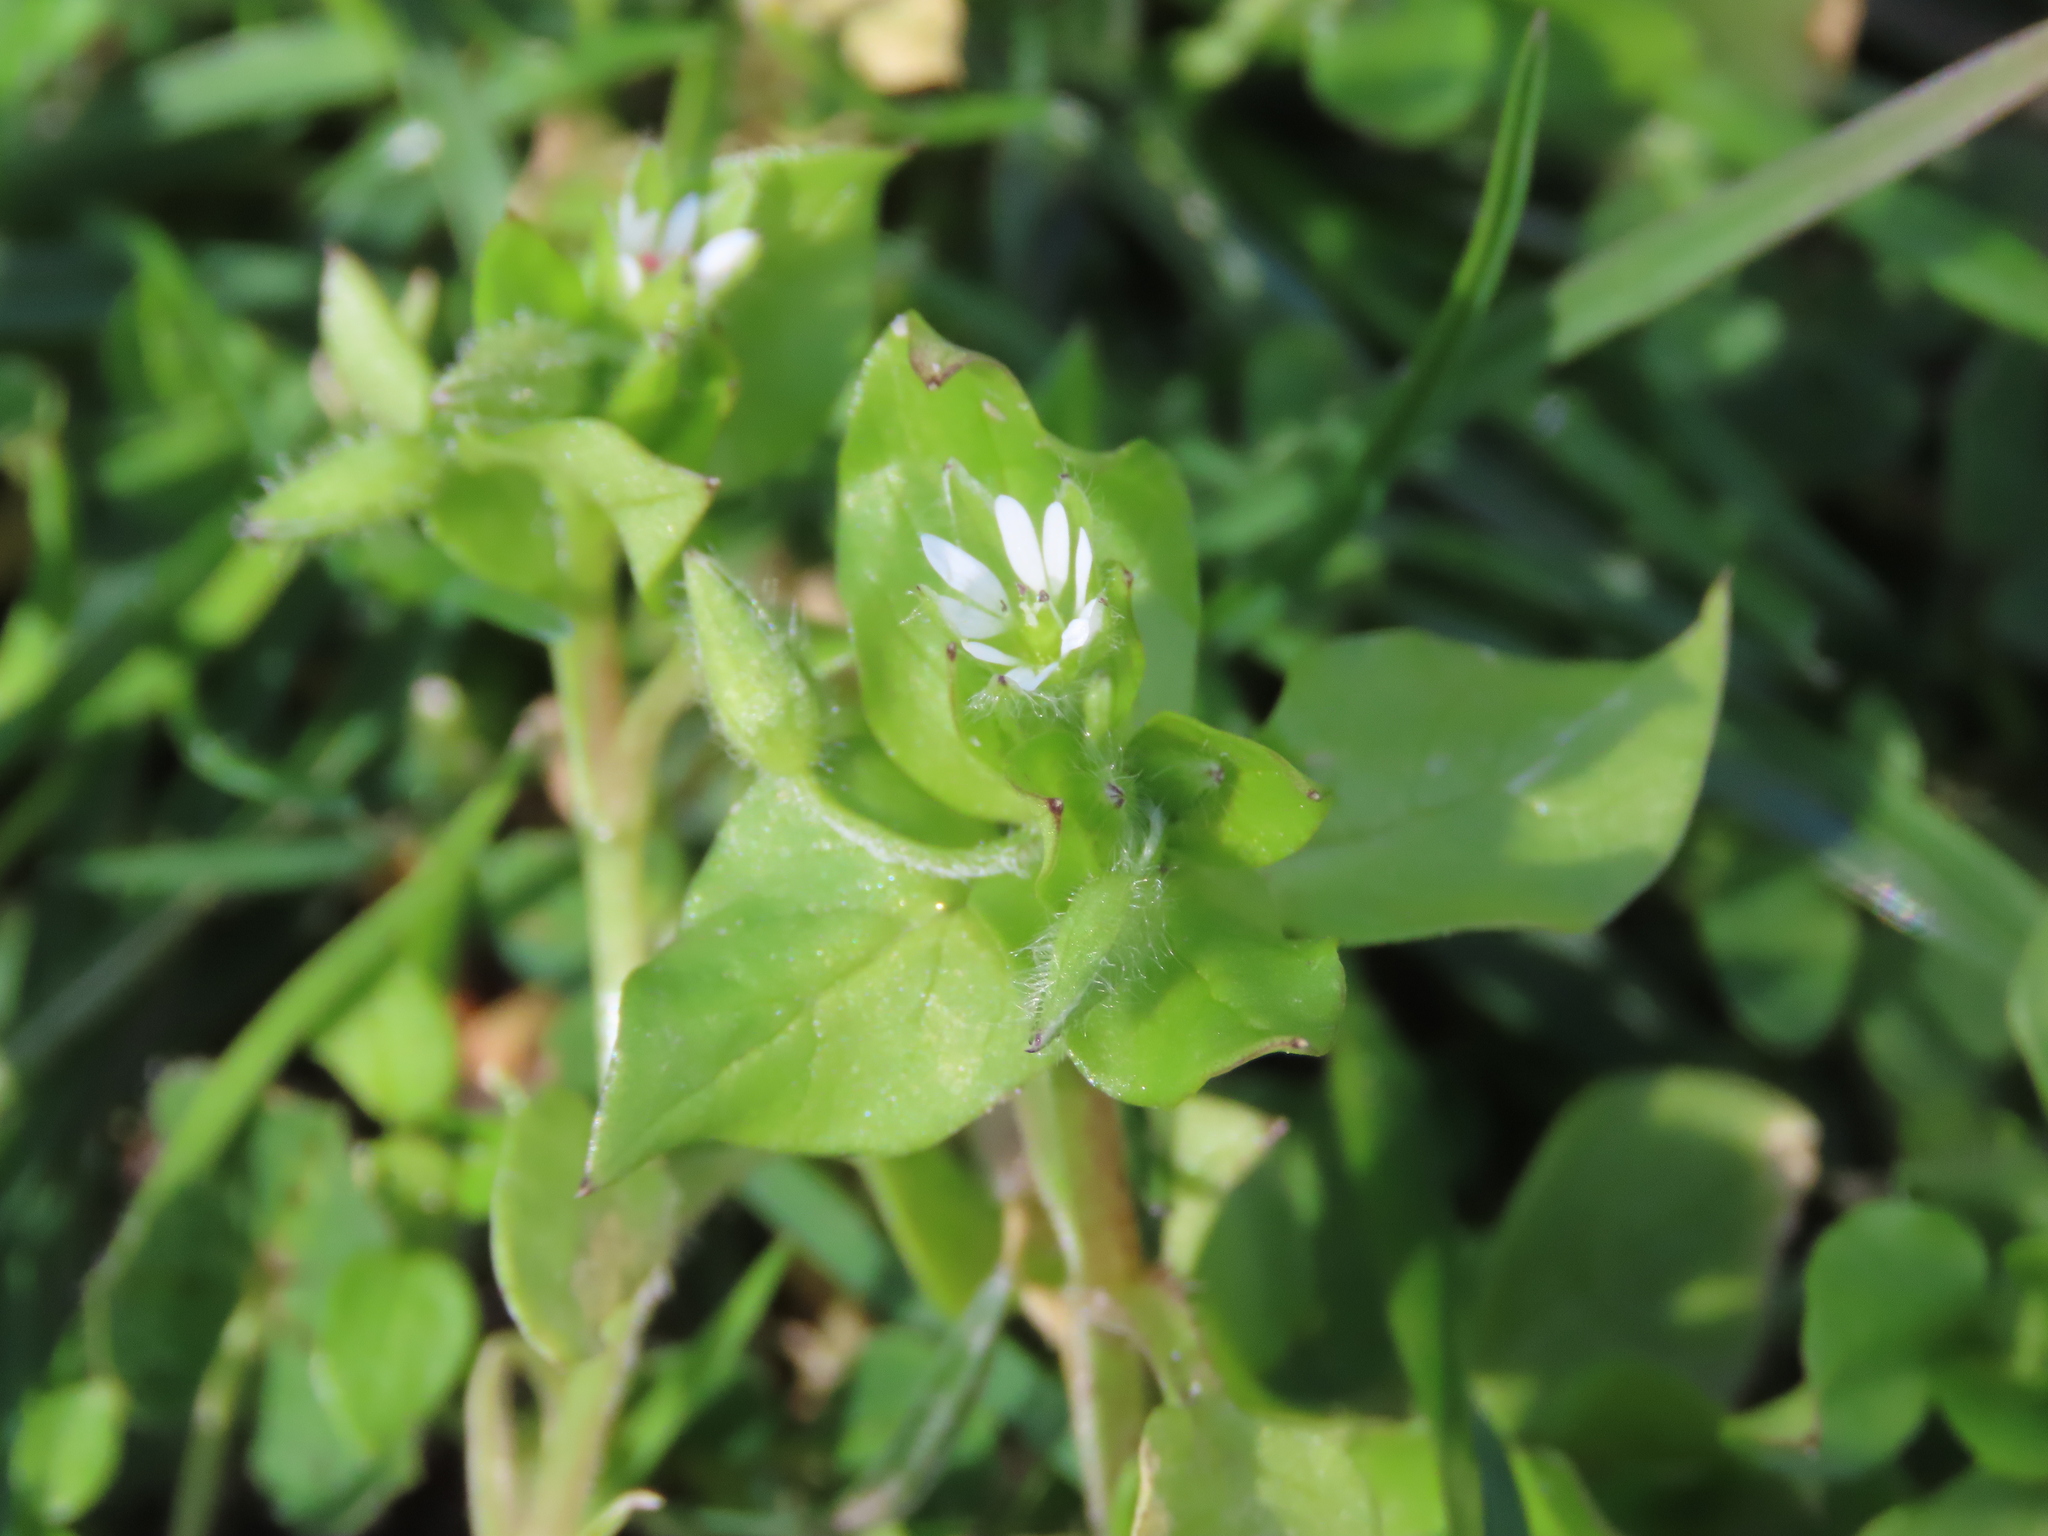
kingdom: Plantae
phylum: Tracheophyta
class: Magnoliopsida
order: Caryophyllales
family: Caryophyllaceae
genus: Stellaria
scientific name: Stellaria media
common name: Common chickweed
